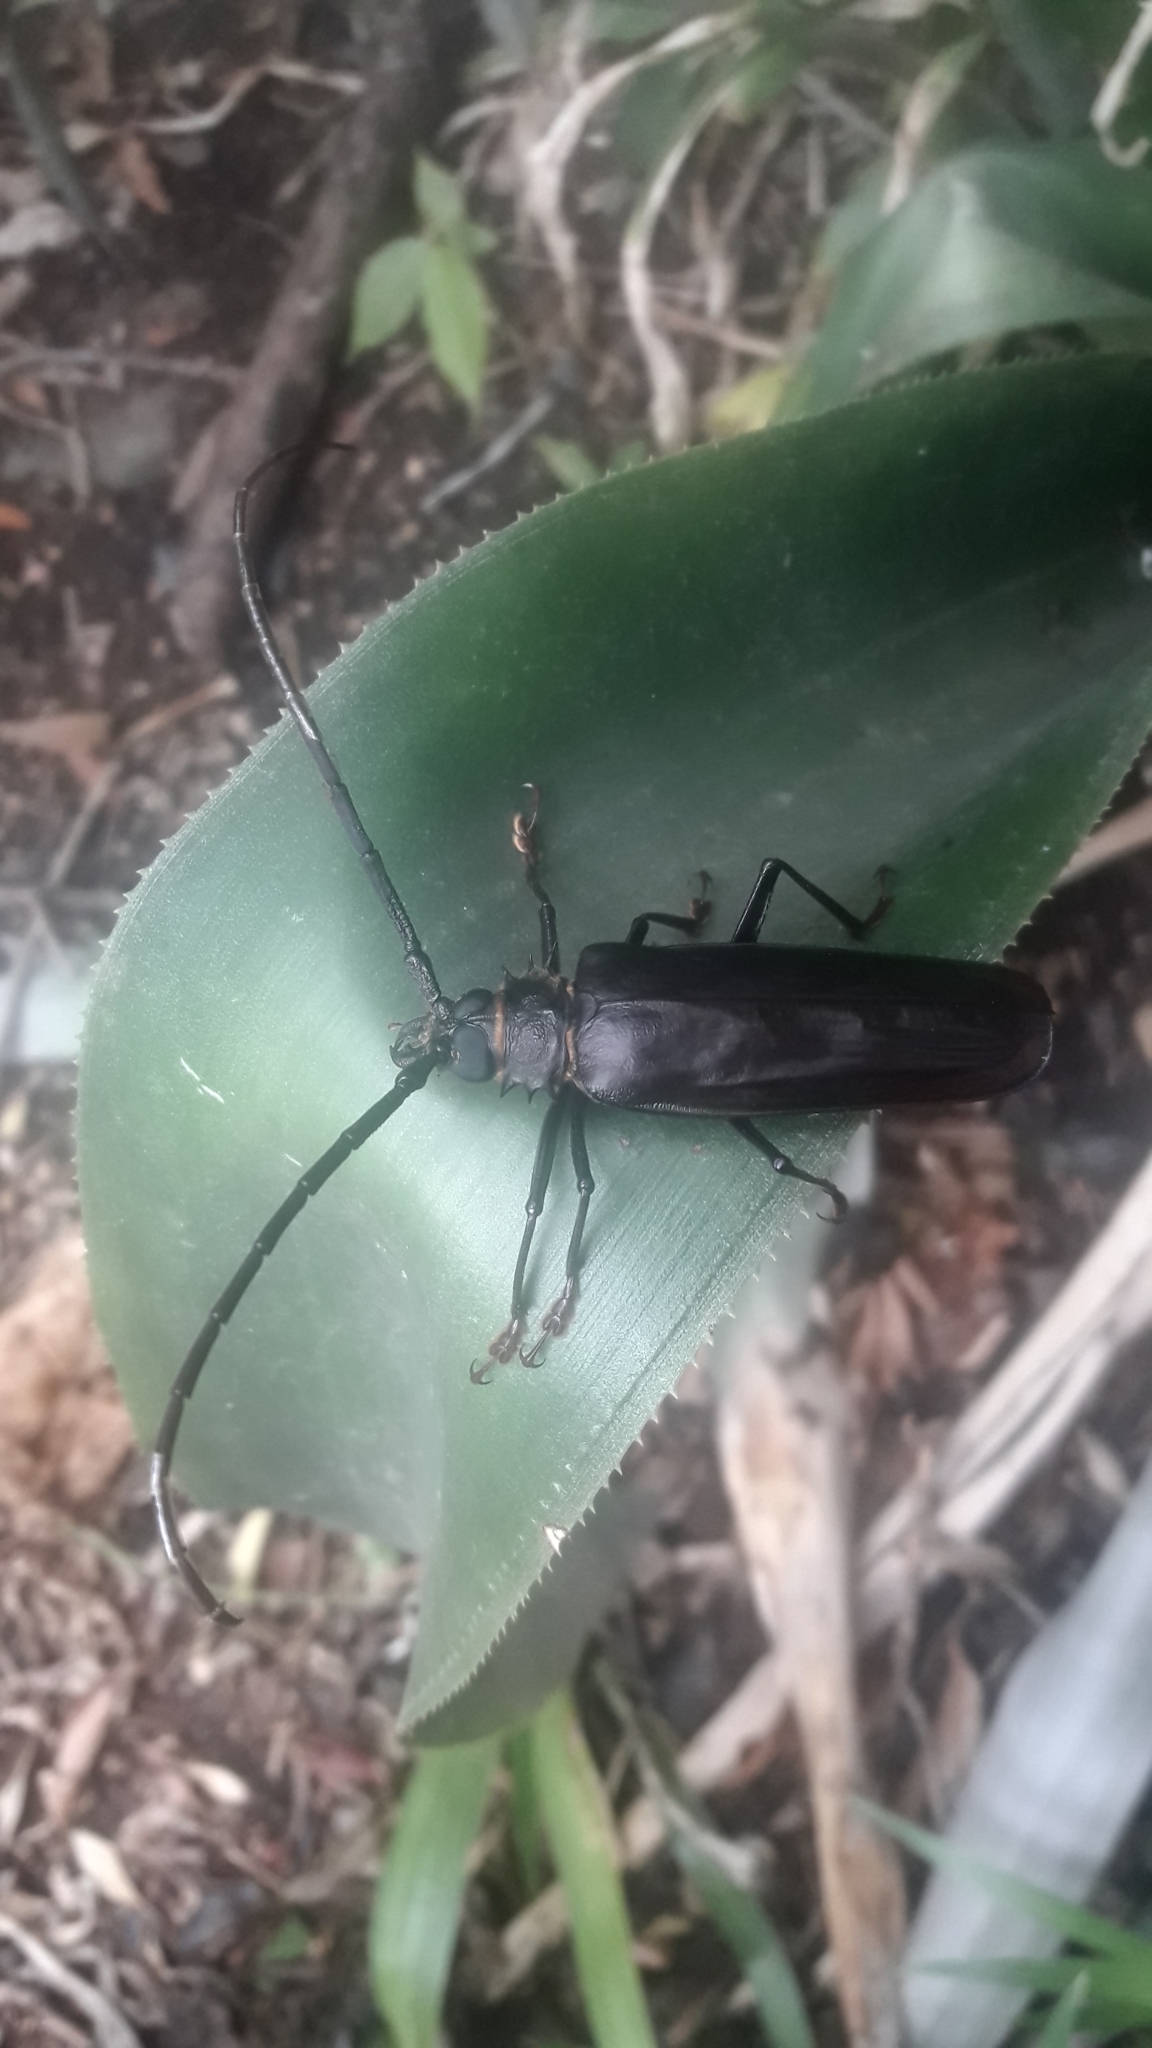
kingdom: Animalia
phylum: Arthropoda
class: Insecta
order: Coleoptera
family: Cerambycidae
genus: Derobrachus
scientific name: Derobrachus longicornis
